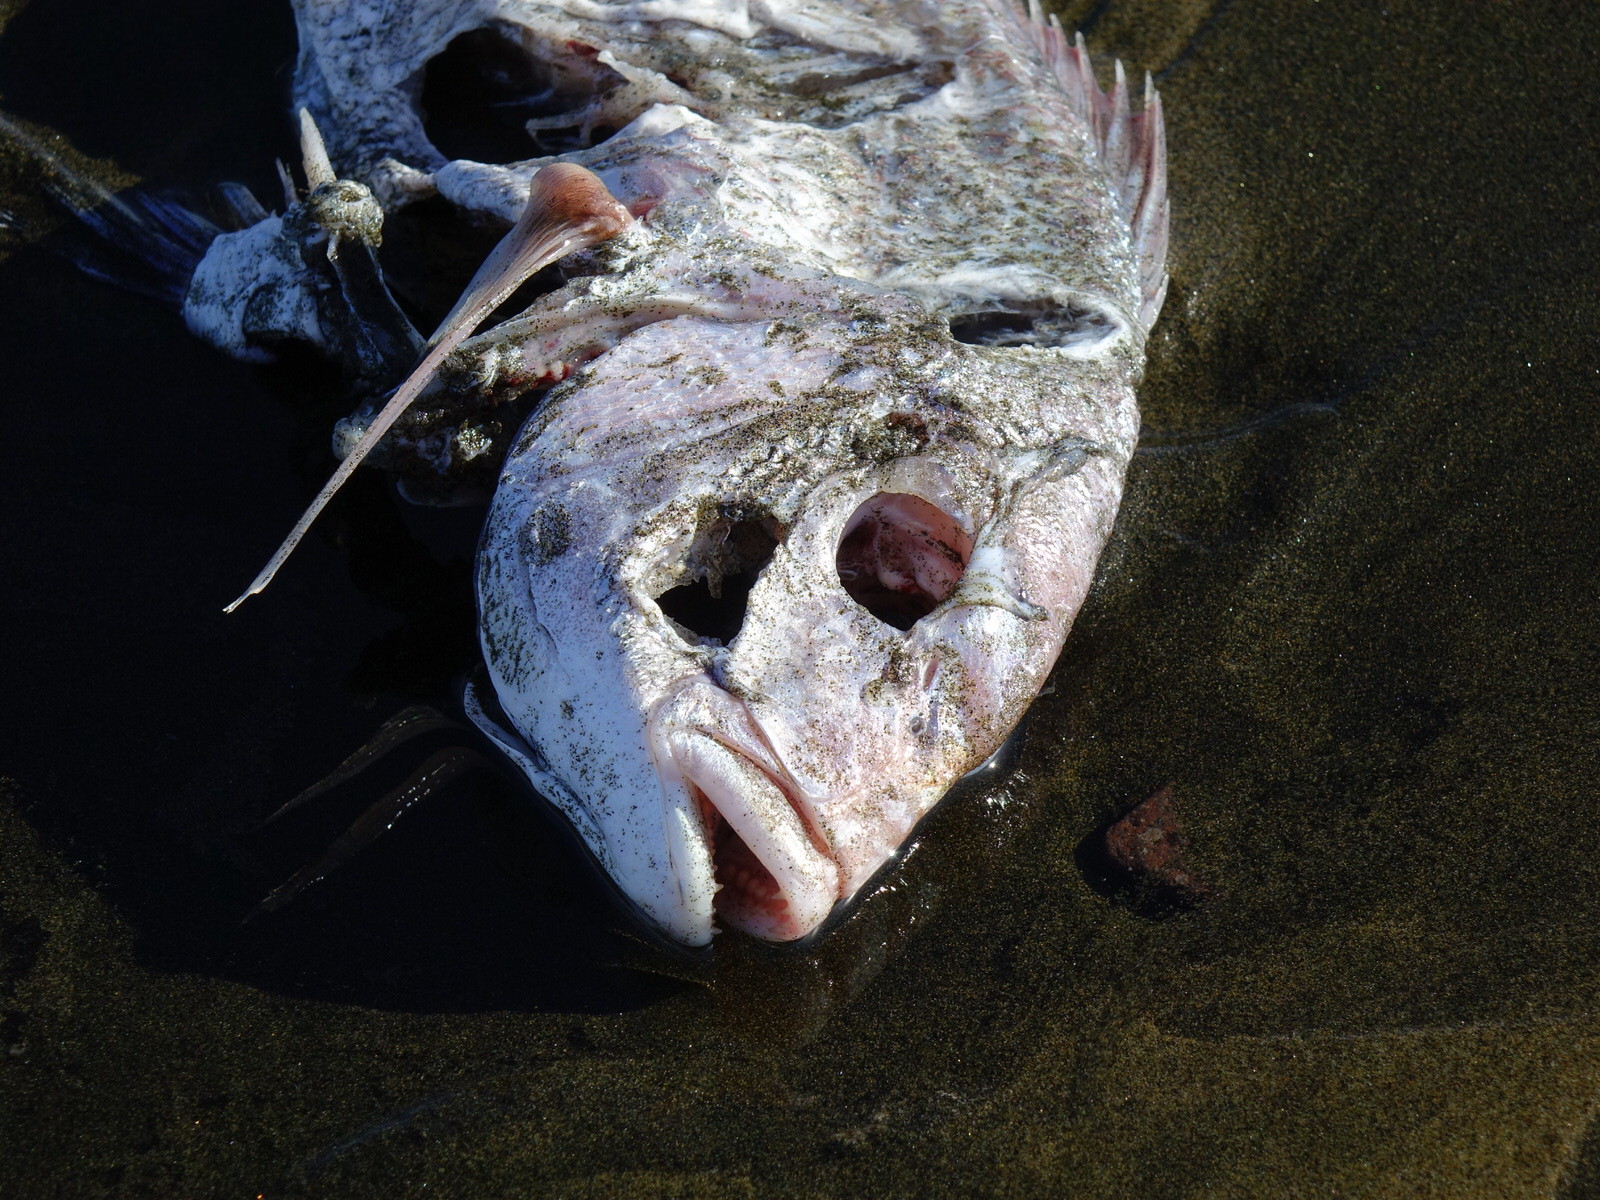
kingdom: Animalia
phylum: Chordata
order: Perciformes
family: Sparidae
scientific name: Sparidae
